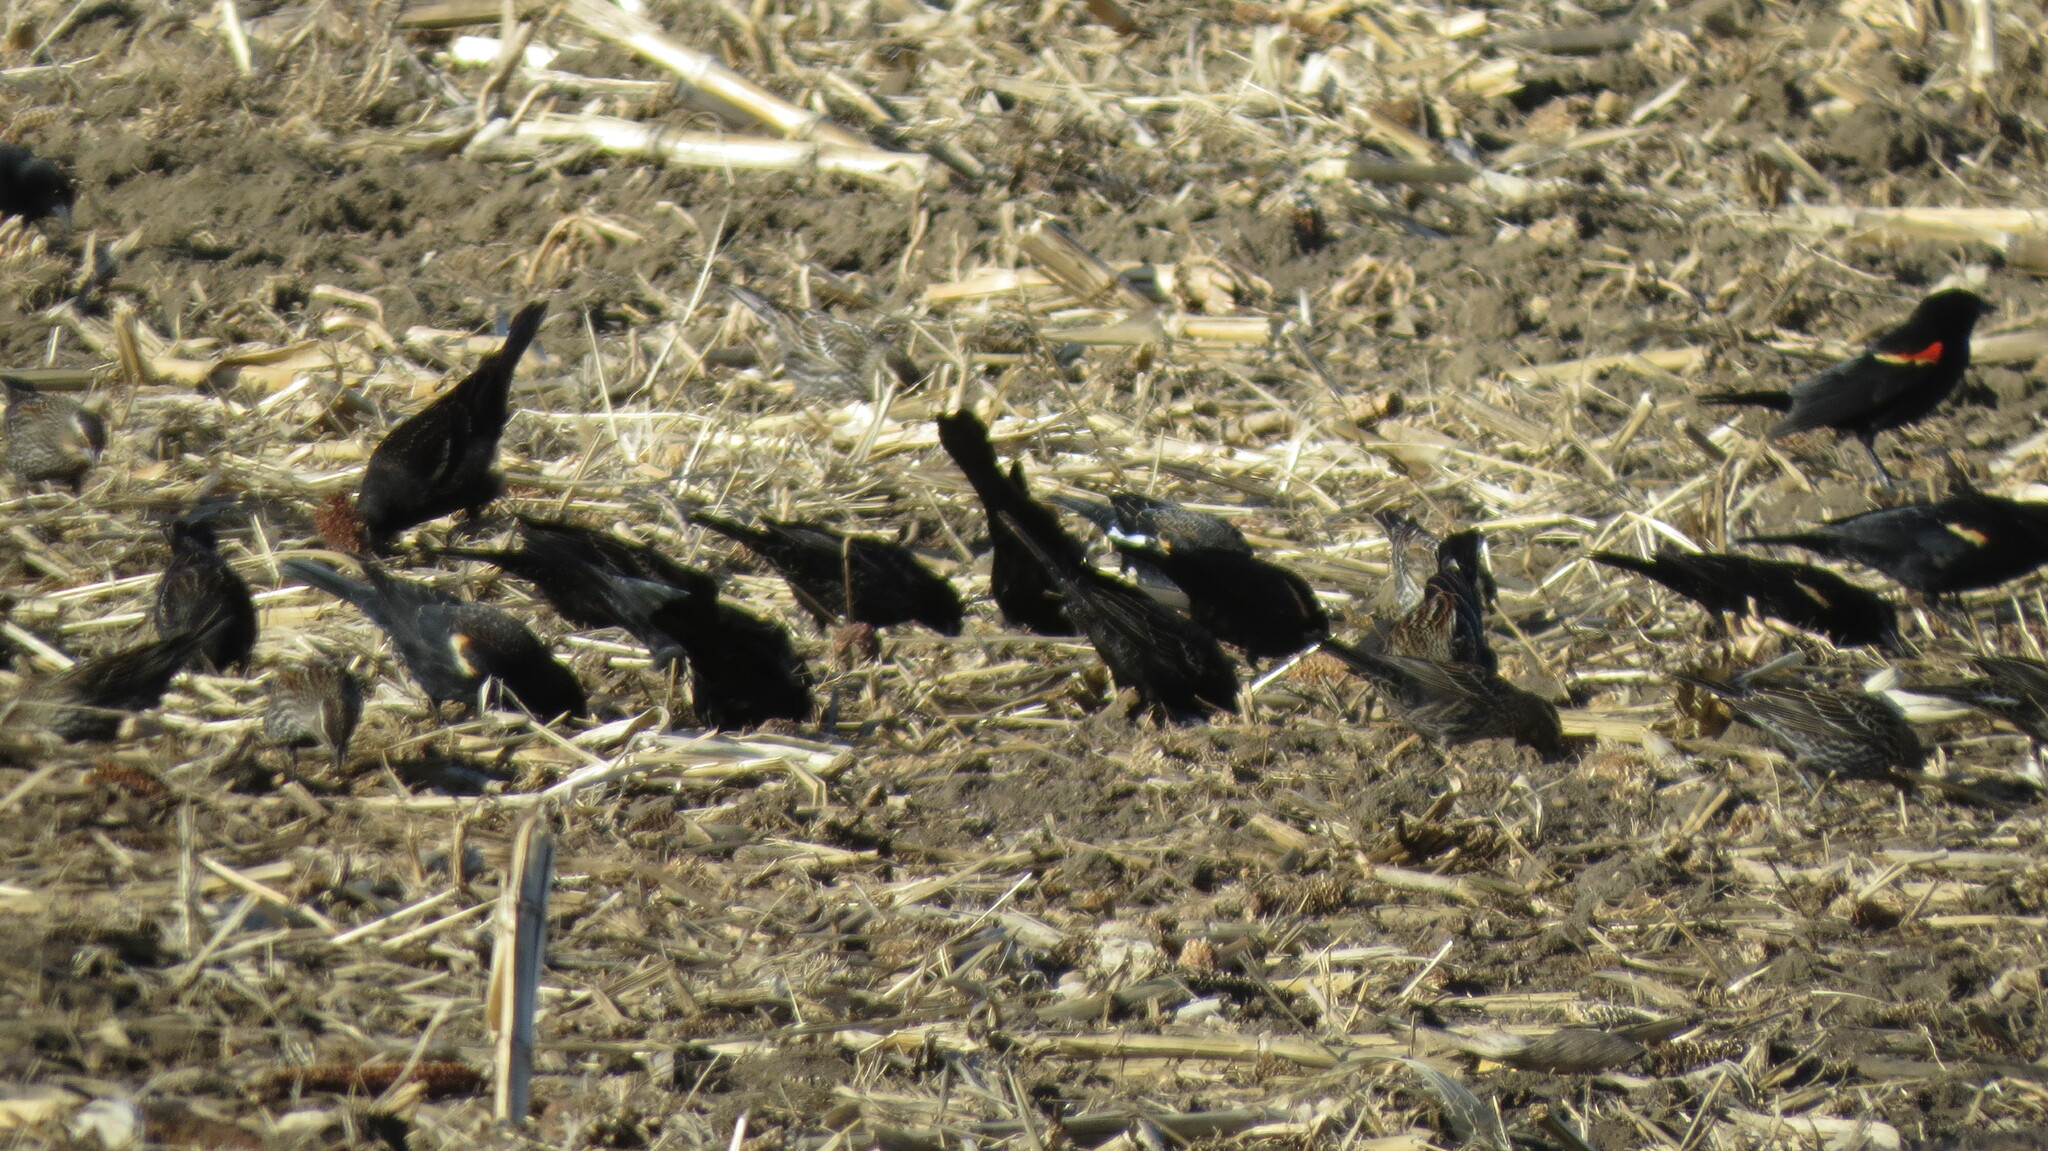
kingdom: Animalia
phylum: Chordata
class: Aves
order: Passeriformes
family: Icteridae
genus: Agelaius
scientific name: Agelaius phoeniceus
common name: Red-winged blackbird
